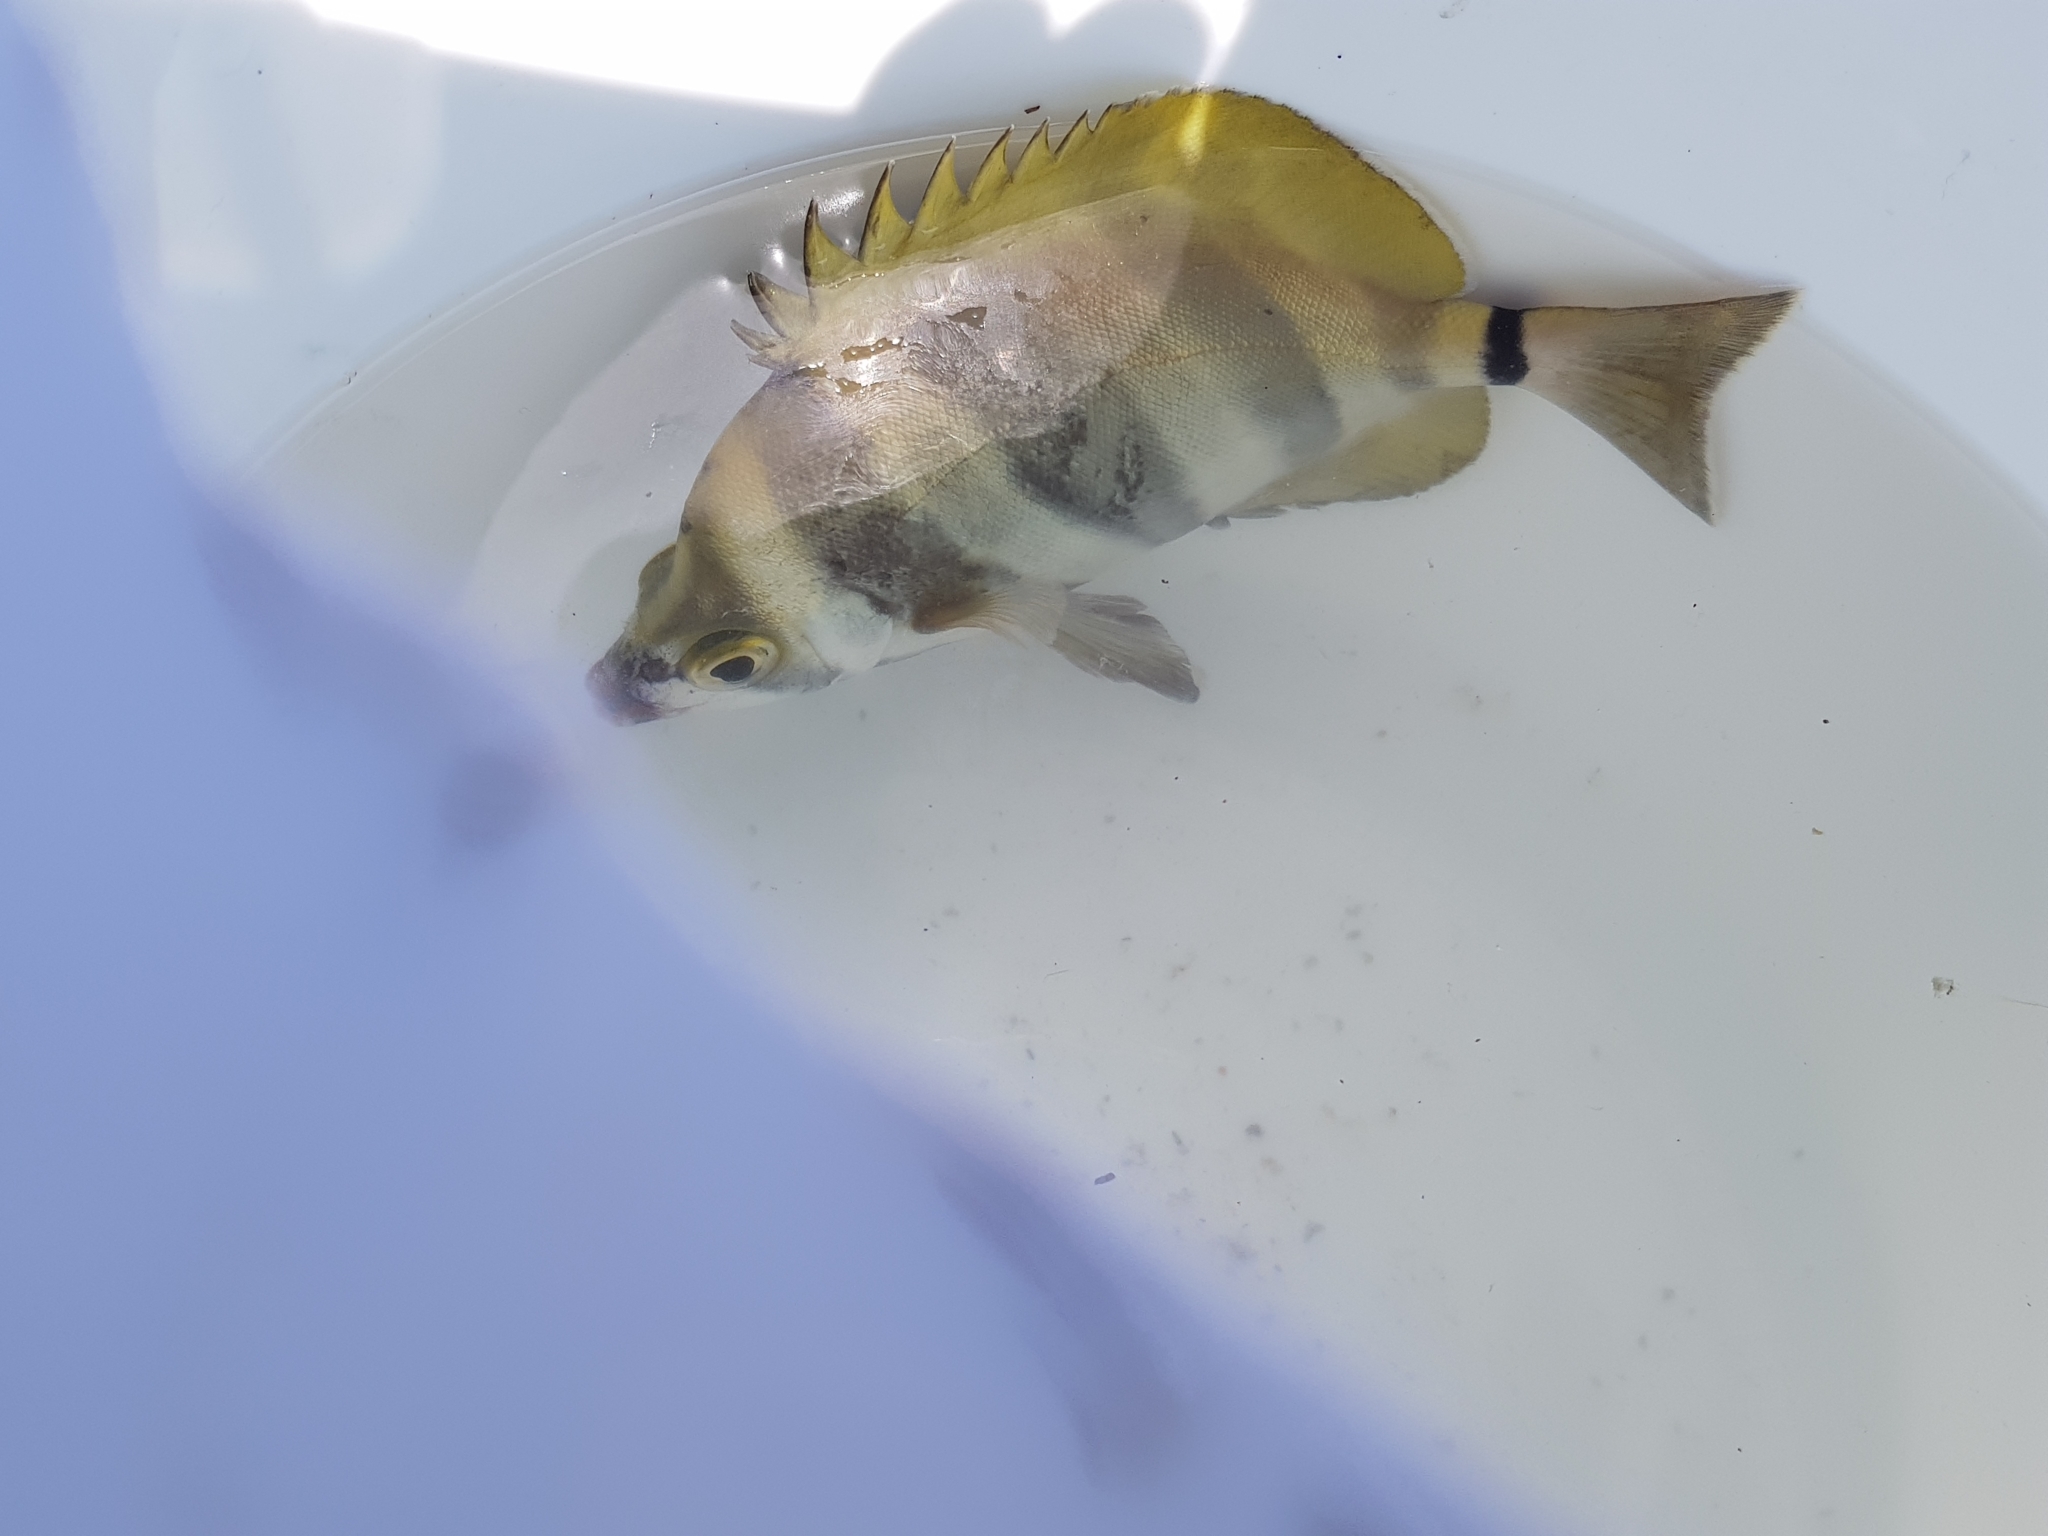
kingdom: Animalia
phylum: Chordata
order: Perciformes
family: Kyphosidae
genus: Tilodon
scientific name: Tilodon sexfasciatus
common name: Moonlighter
